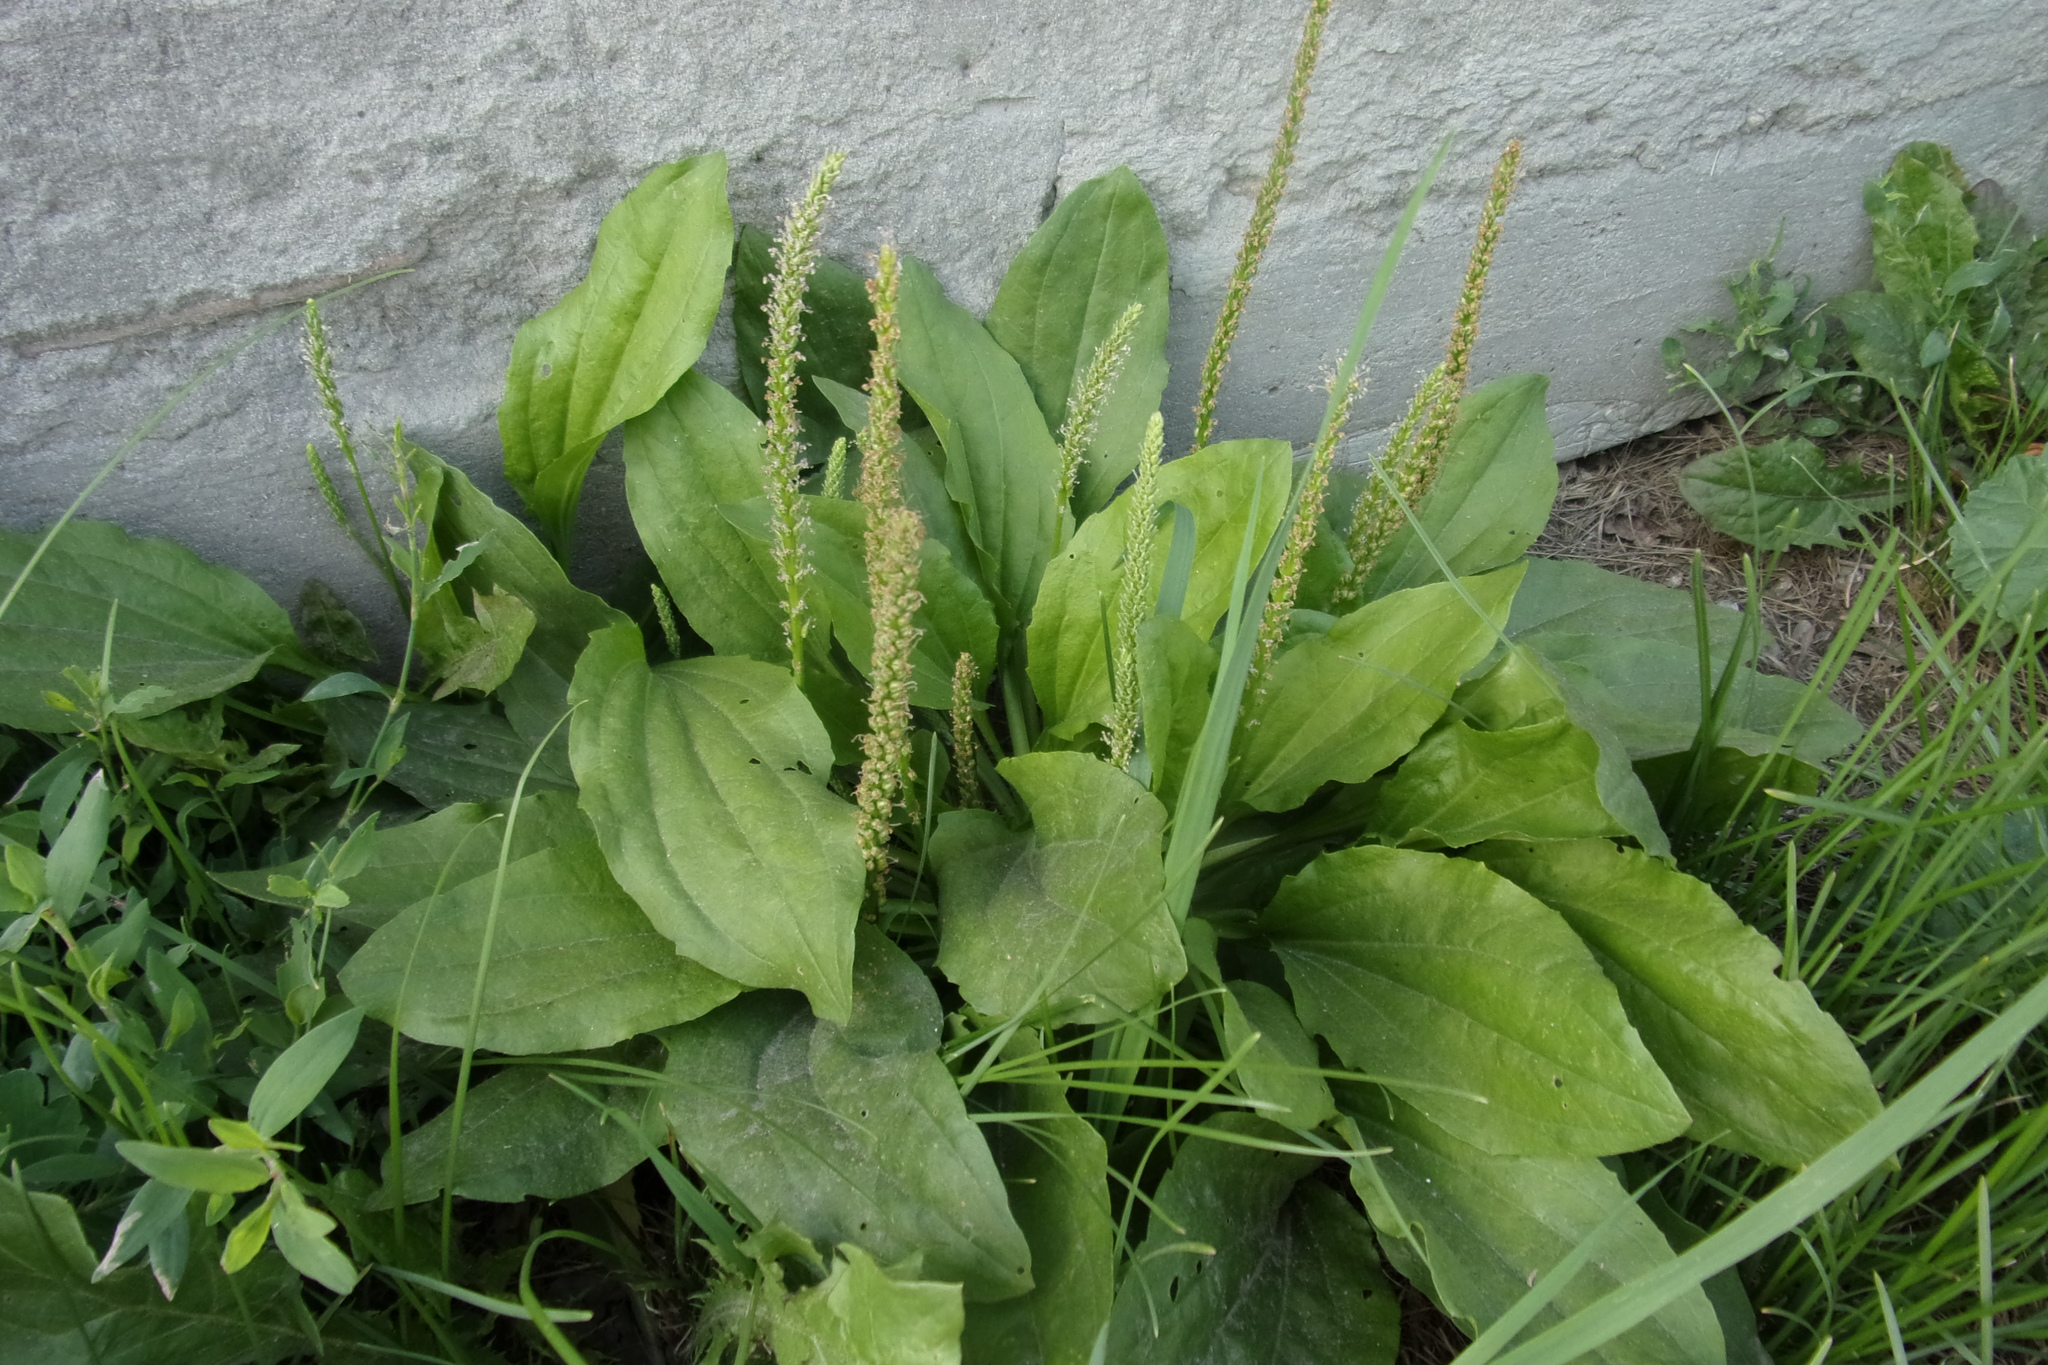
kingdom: Plantae
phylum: Tracheophyta
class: Magnoliopsida
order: Lamiales
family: Plantaginaceae
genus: Plantago
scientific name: Plantago major
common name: Common plantain
